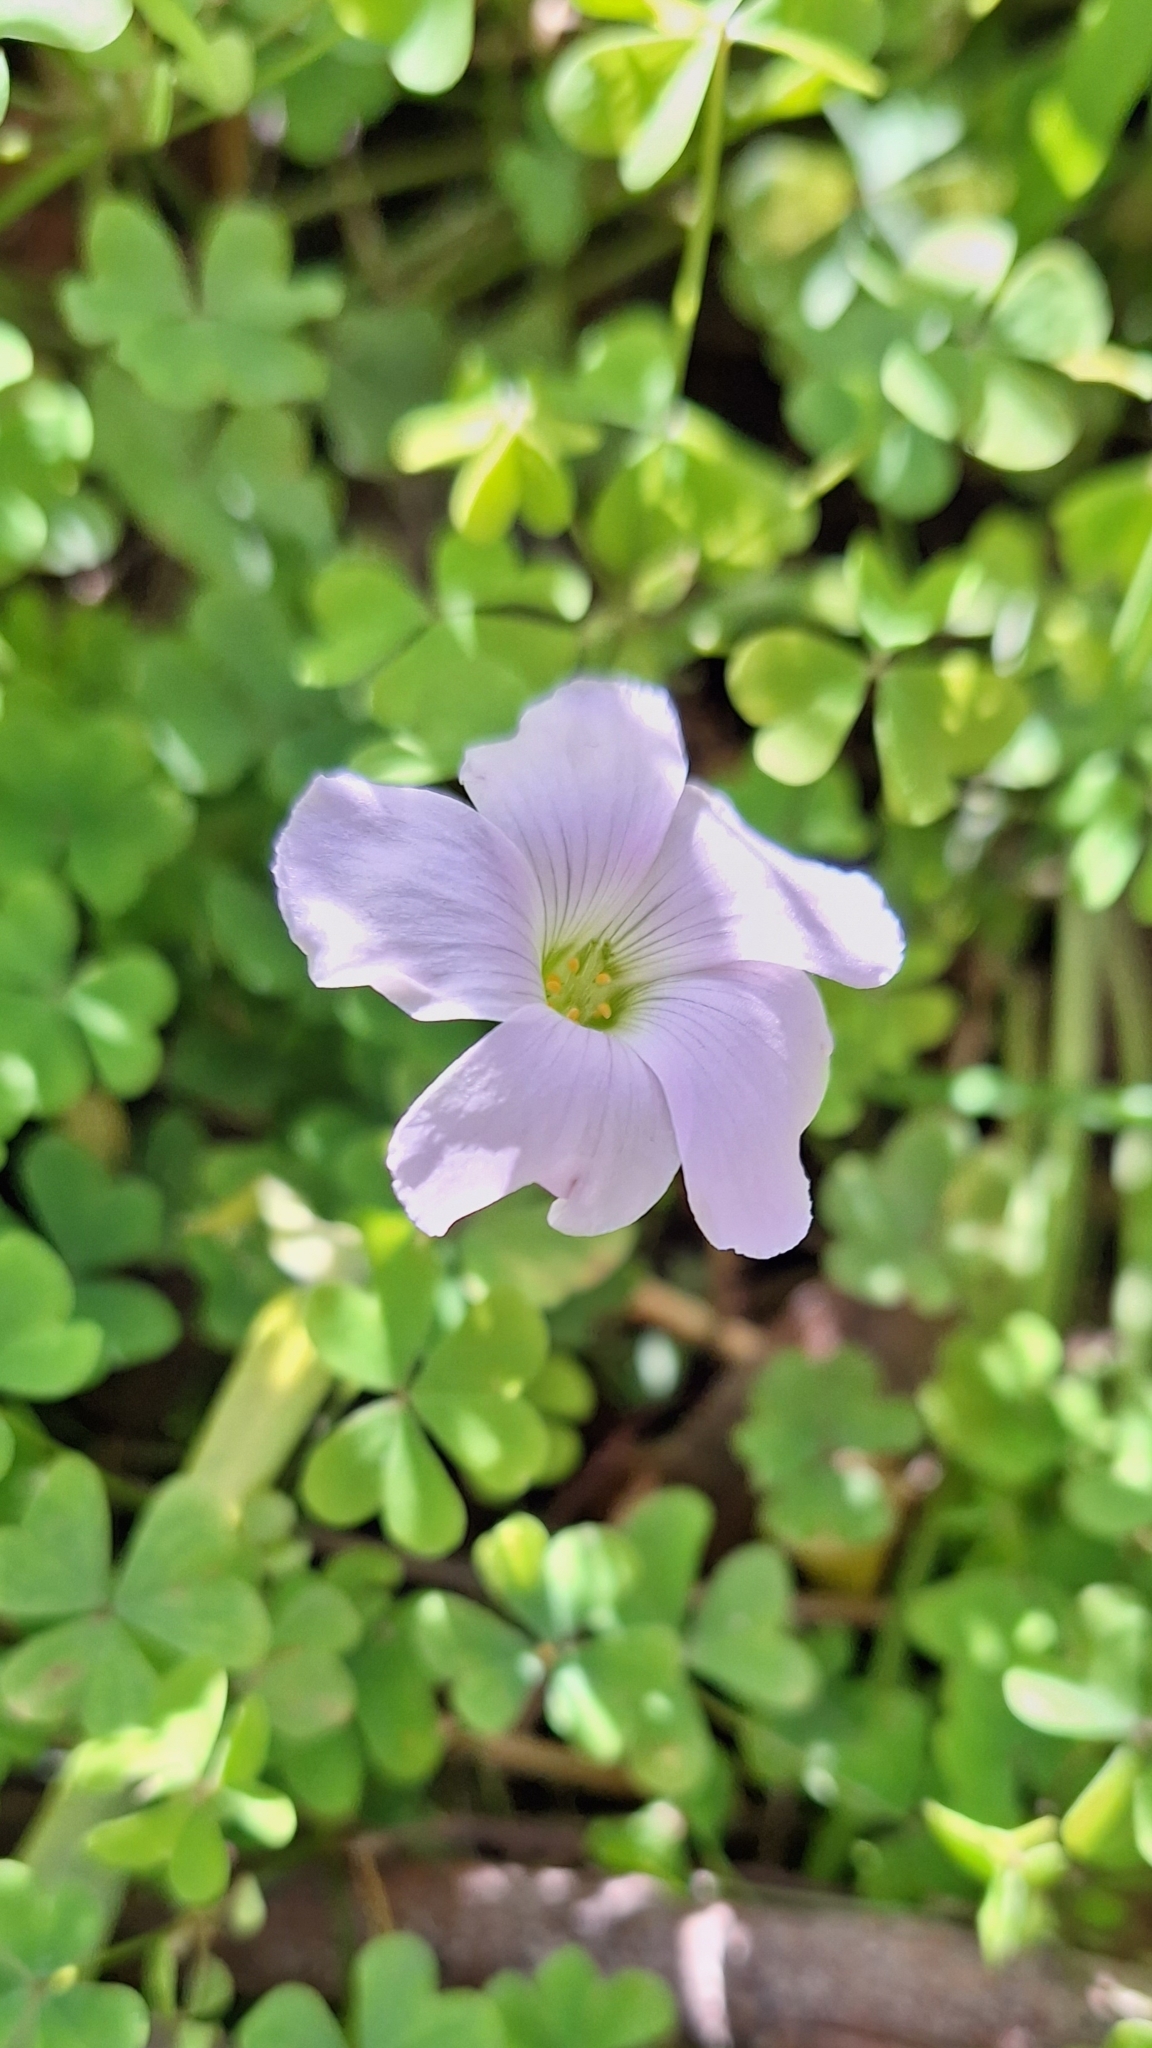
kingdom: Plantae
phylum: Tracheophyta
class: Magnoliopsida
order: Oxalidales
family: Oxalidaceae
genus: Oxalis
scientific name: Oxalis incarnata
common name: Pale pink-sorrel
